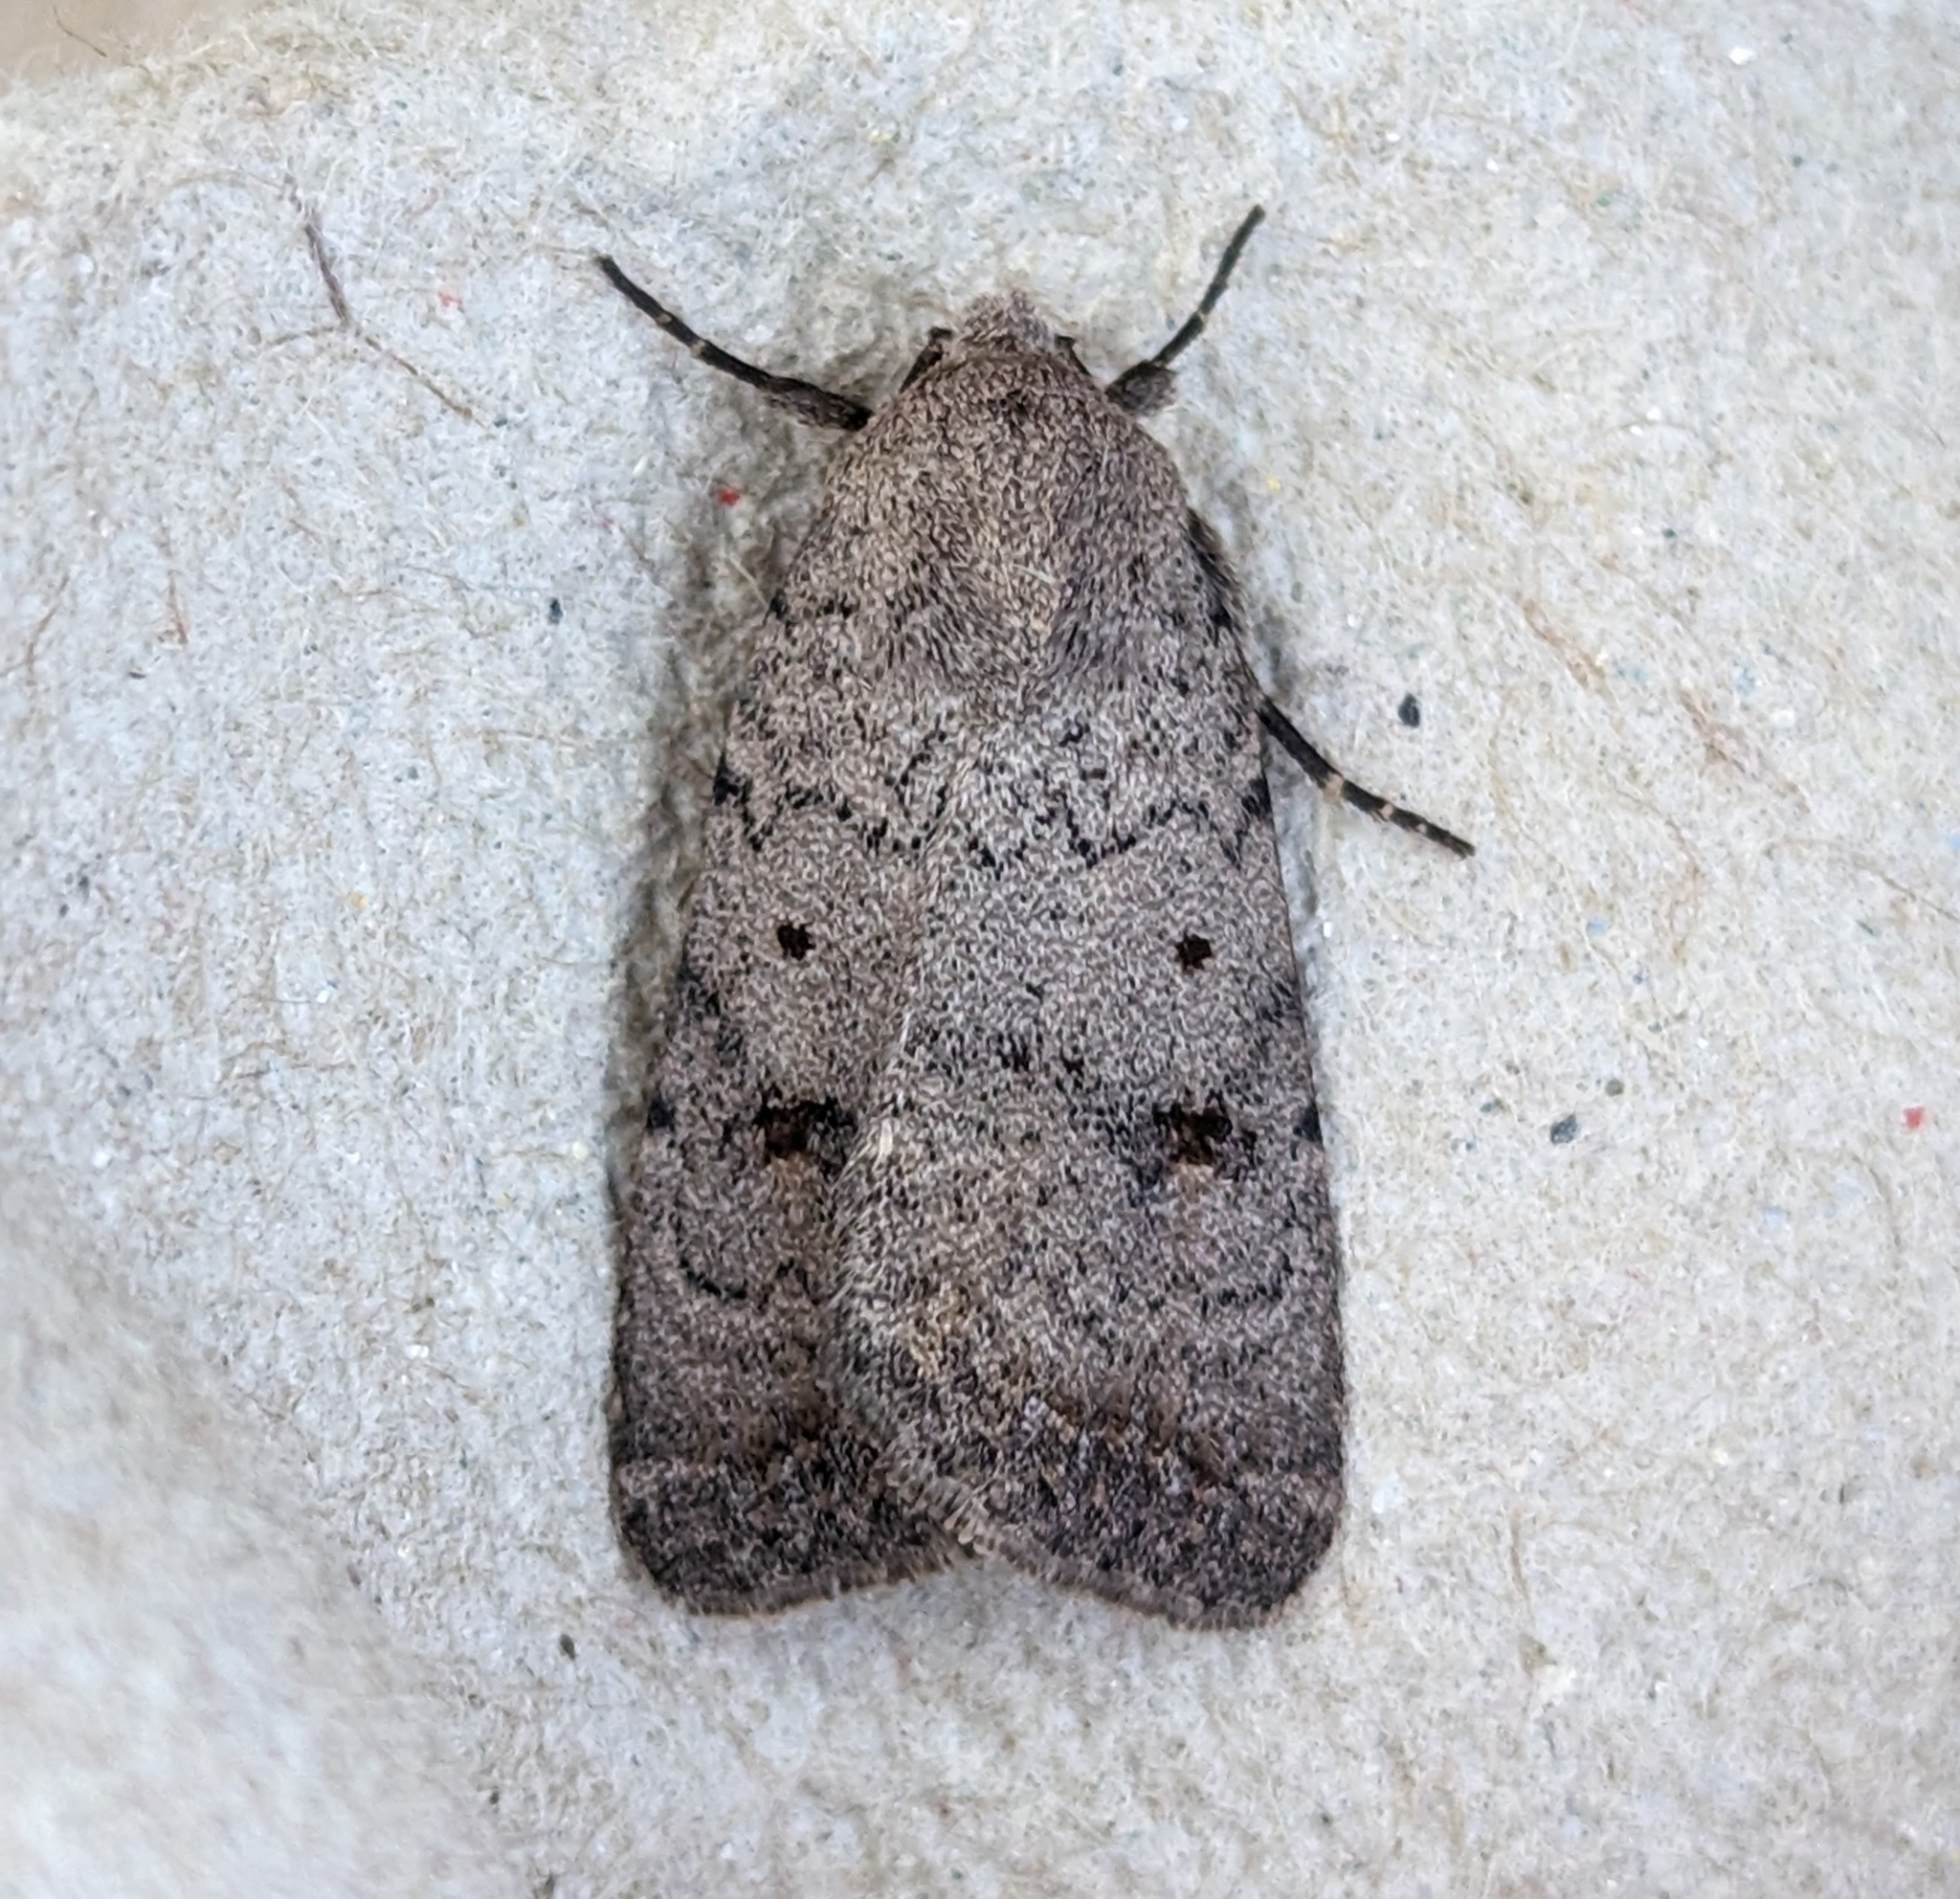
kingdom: Animalia
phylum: Arthropoda
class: Insecta
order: Lepidoptera
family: Noctuidae
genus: Caradrina
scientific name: Caradrina montana
